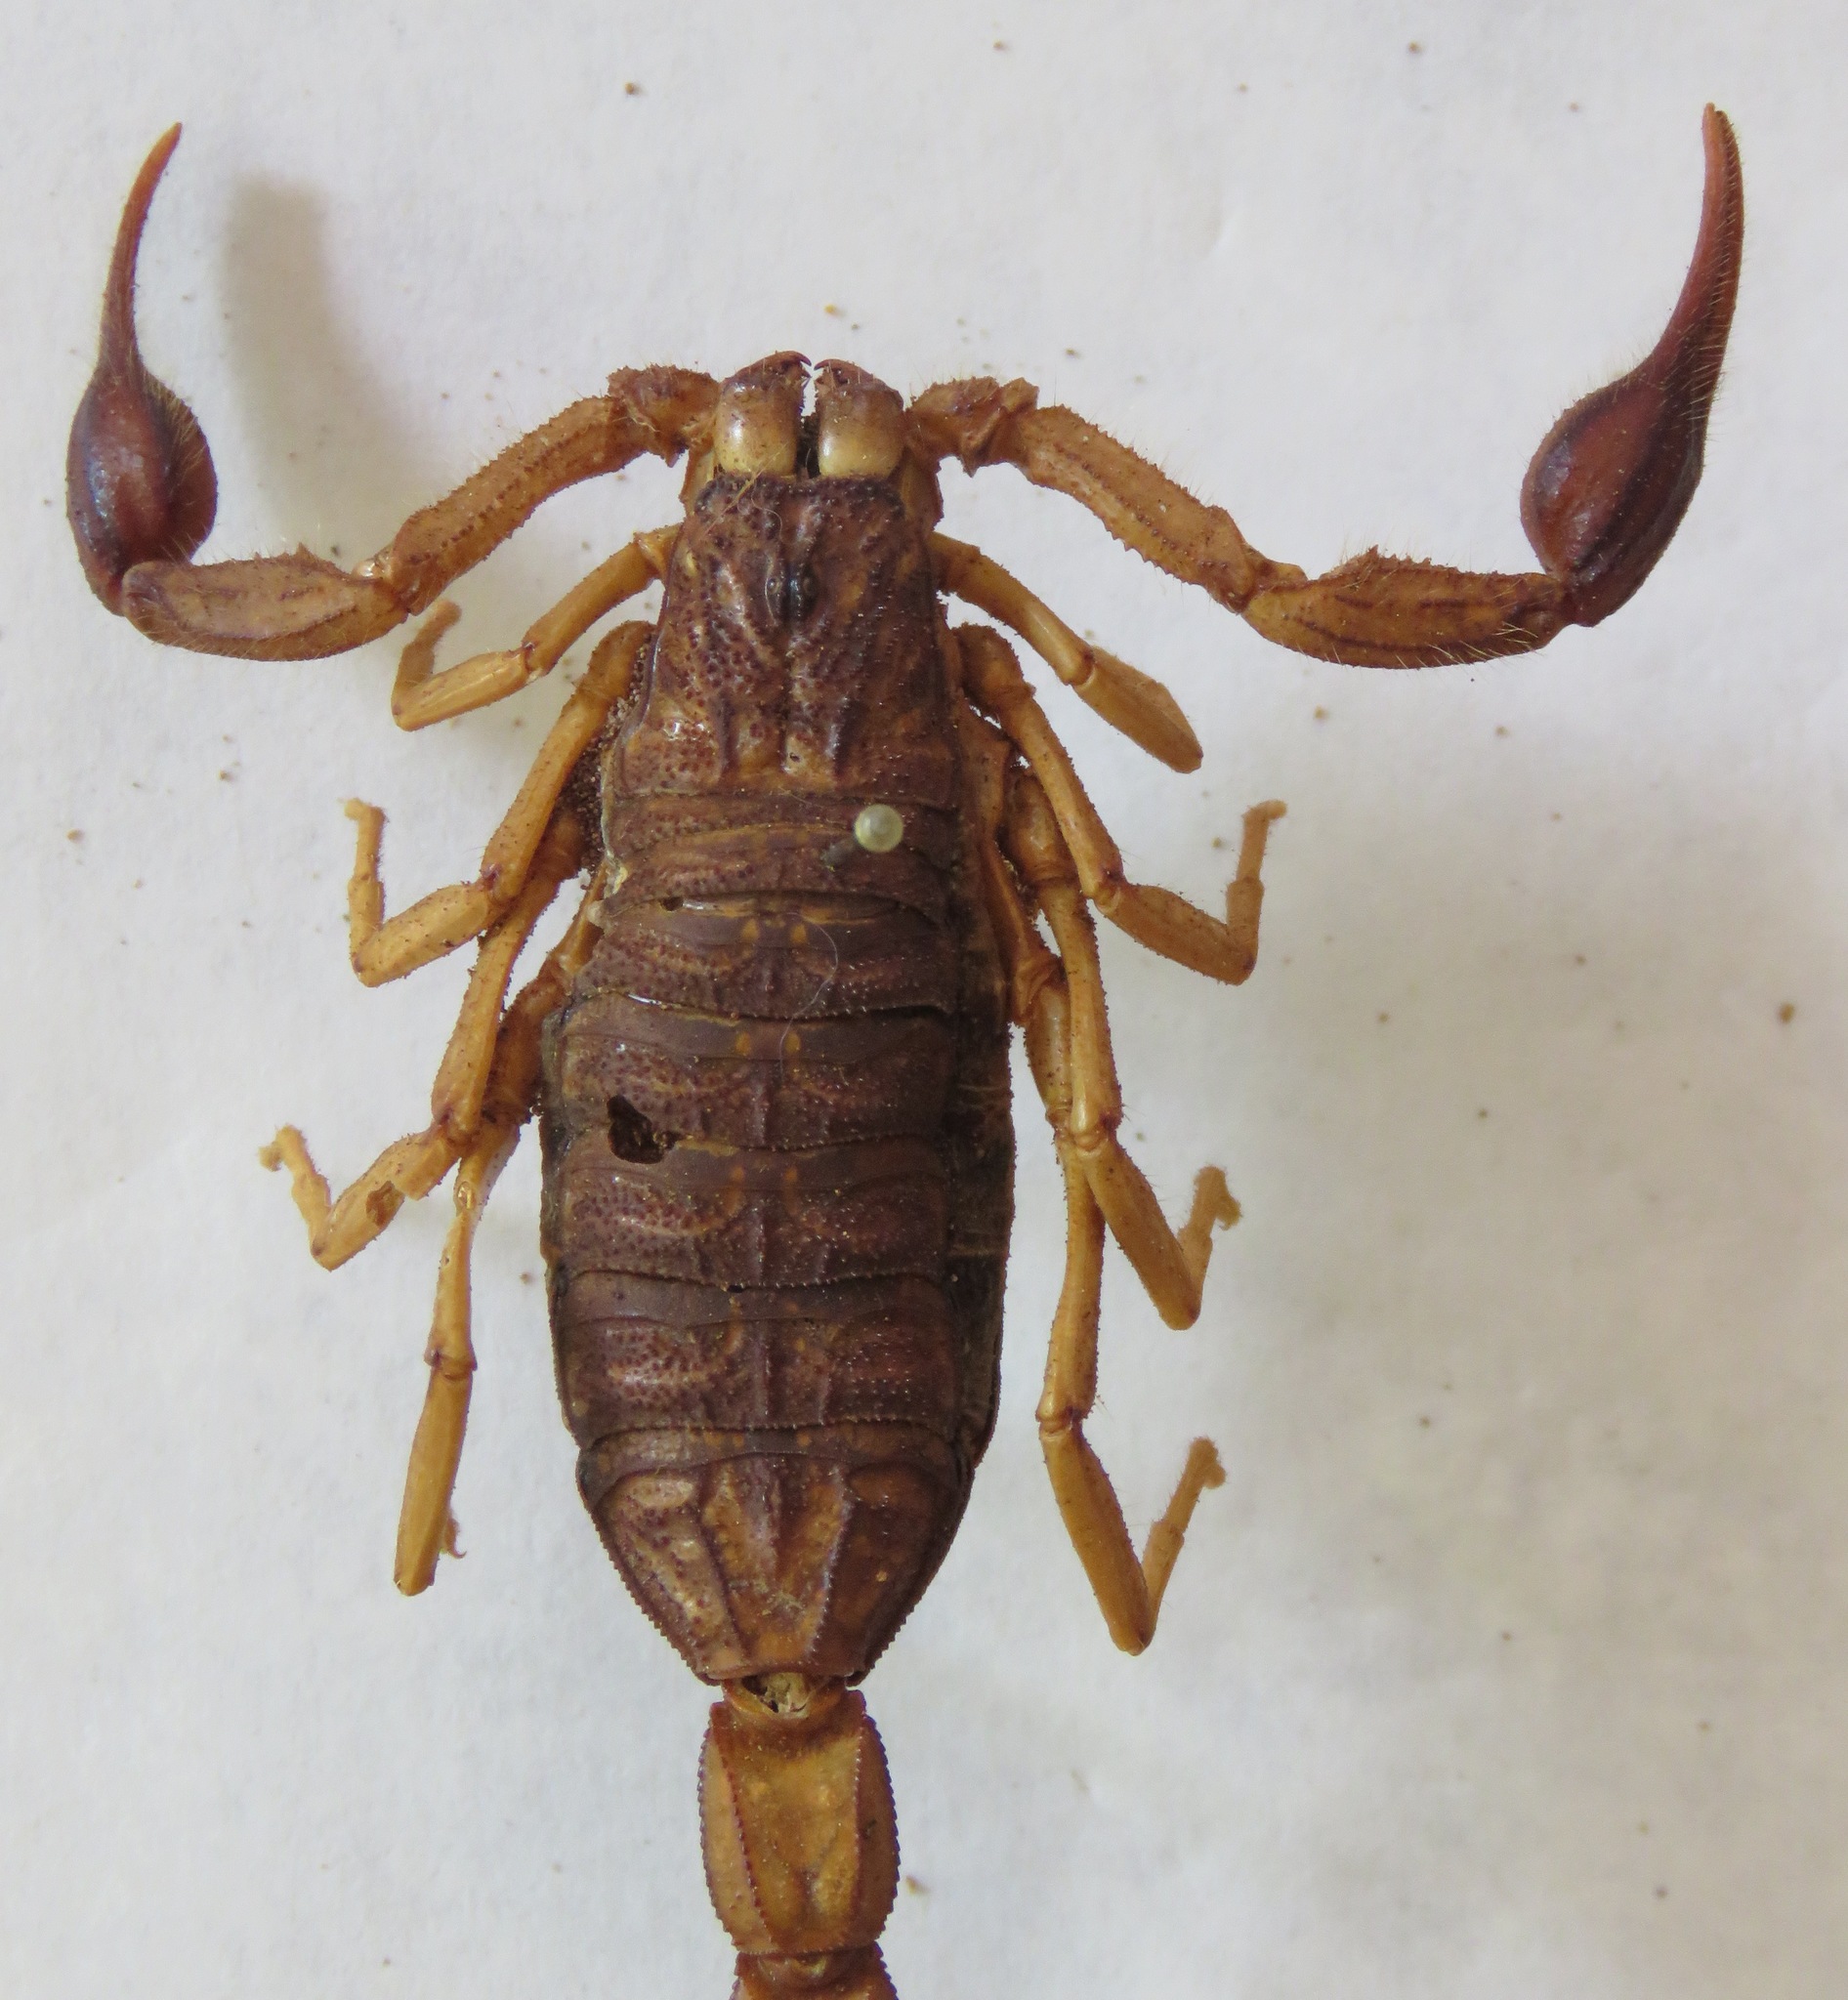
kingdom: Animalia
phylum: Arthropoda
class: Arachnida
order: Scorpiones
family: Buthidae
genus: Centruroides
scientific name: Centruroides edwardsii
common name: Scorpions
